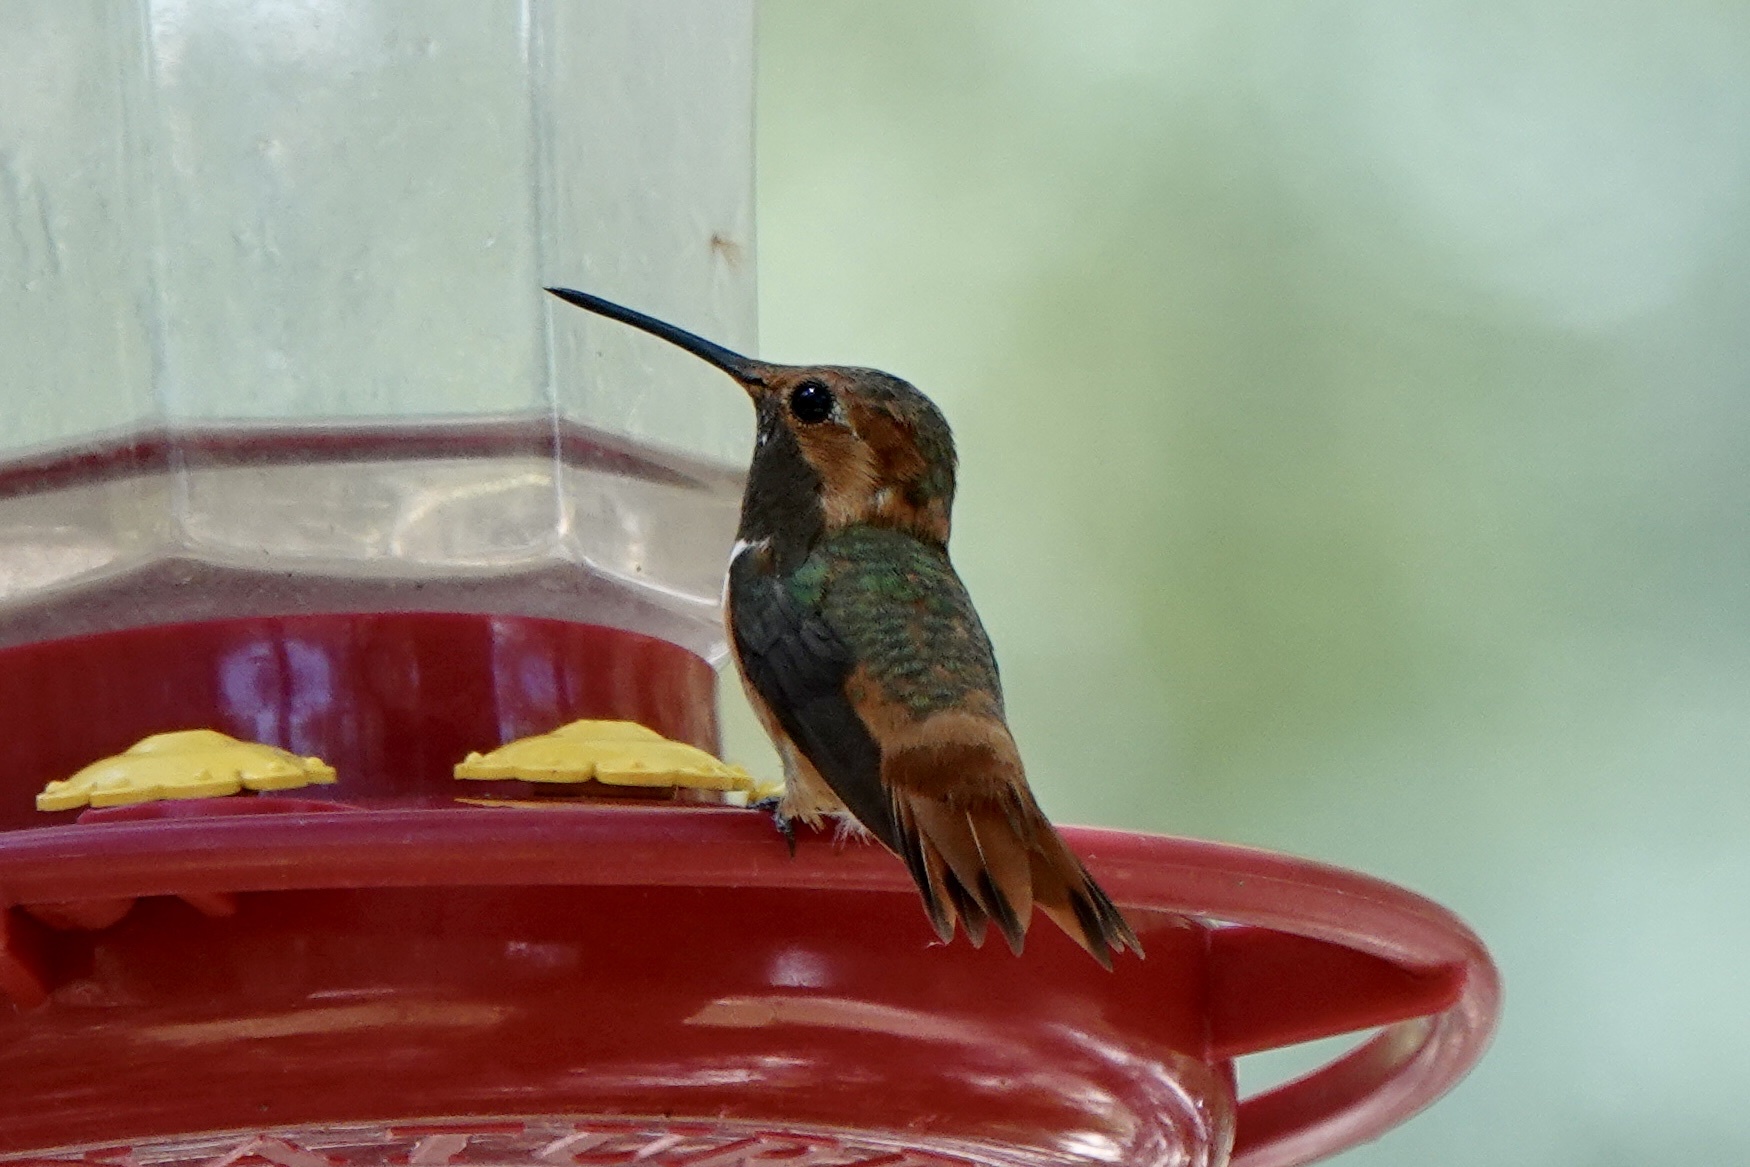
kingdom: Animalia
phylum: Chordata
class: Aves
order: Apodiformes
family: Trochilidae
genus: Selasphorus
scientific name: Selasphorus sasin
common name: Allen's hummingbird
